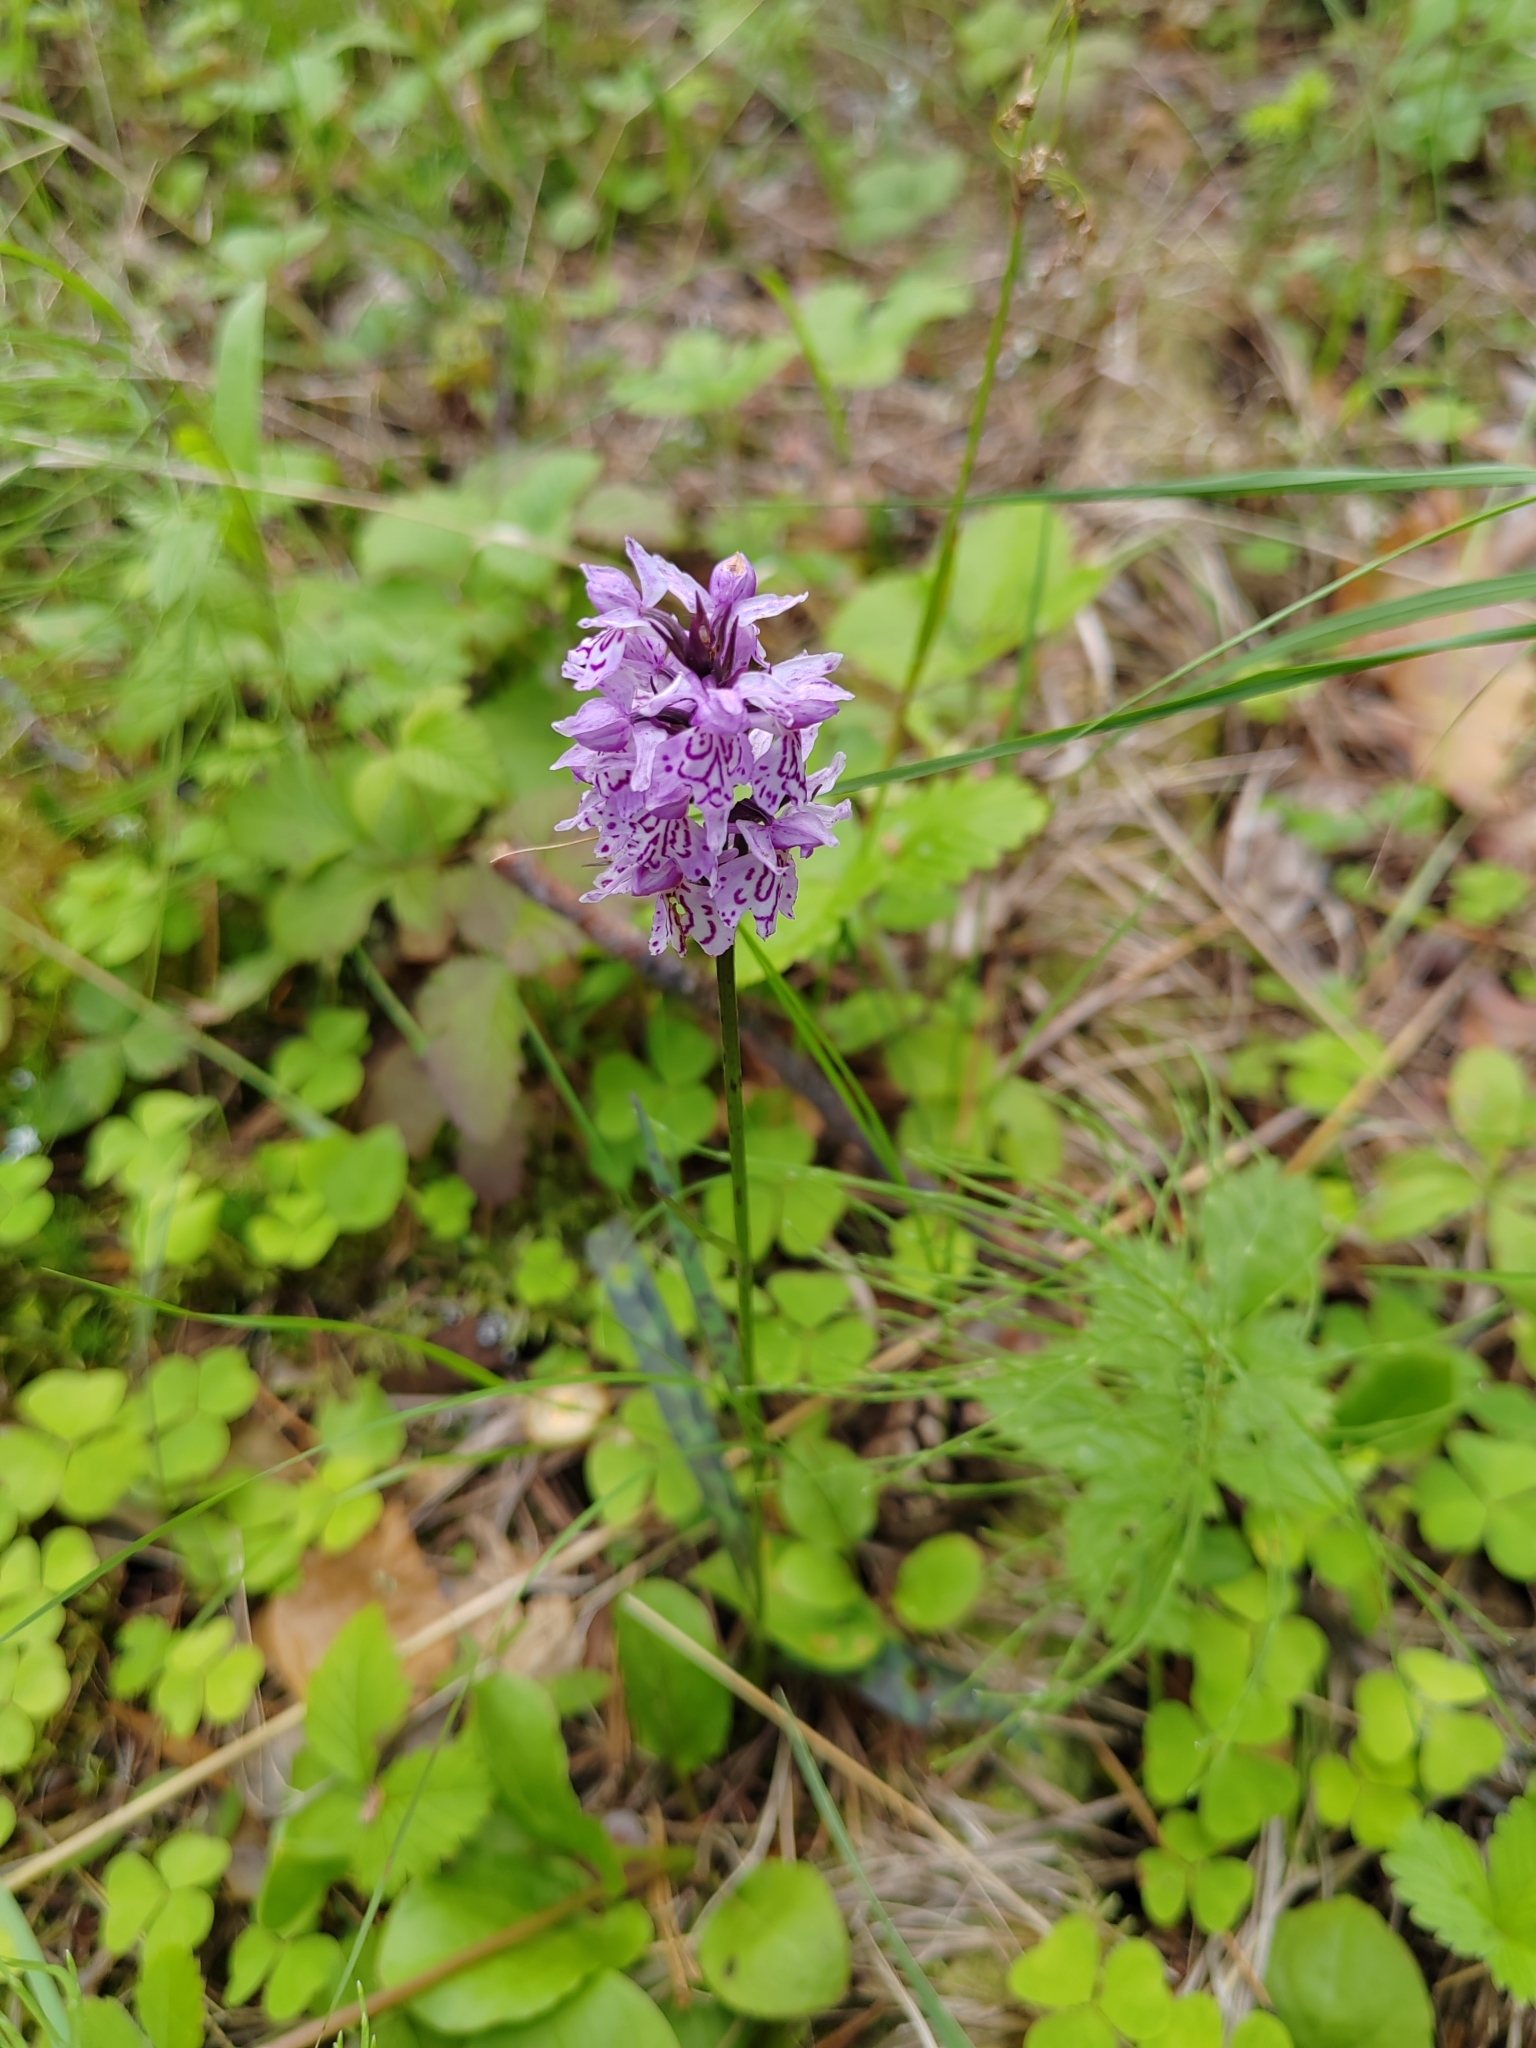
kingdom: Plantae
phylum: Tracheophyta
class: Liliopsida
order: Asparagales
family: Orchidaceae
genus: Dactylorhiza
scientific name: Dactylorhiza maculata
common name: Heath spotted-orchid
